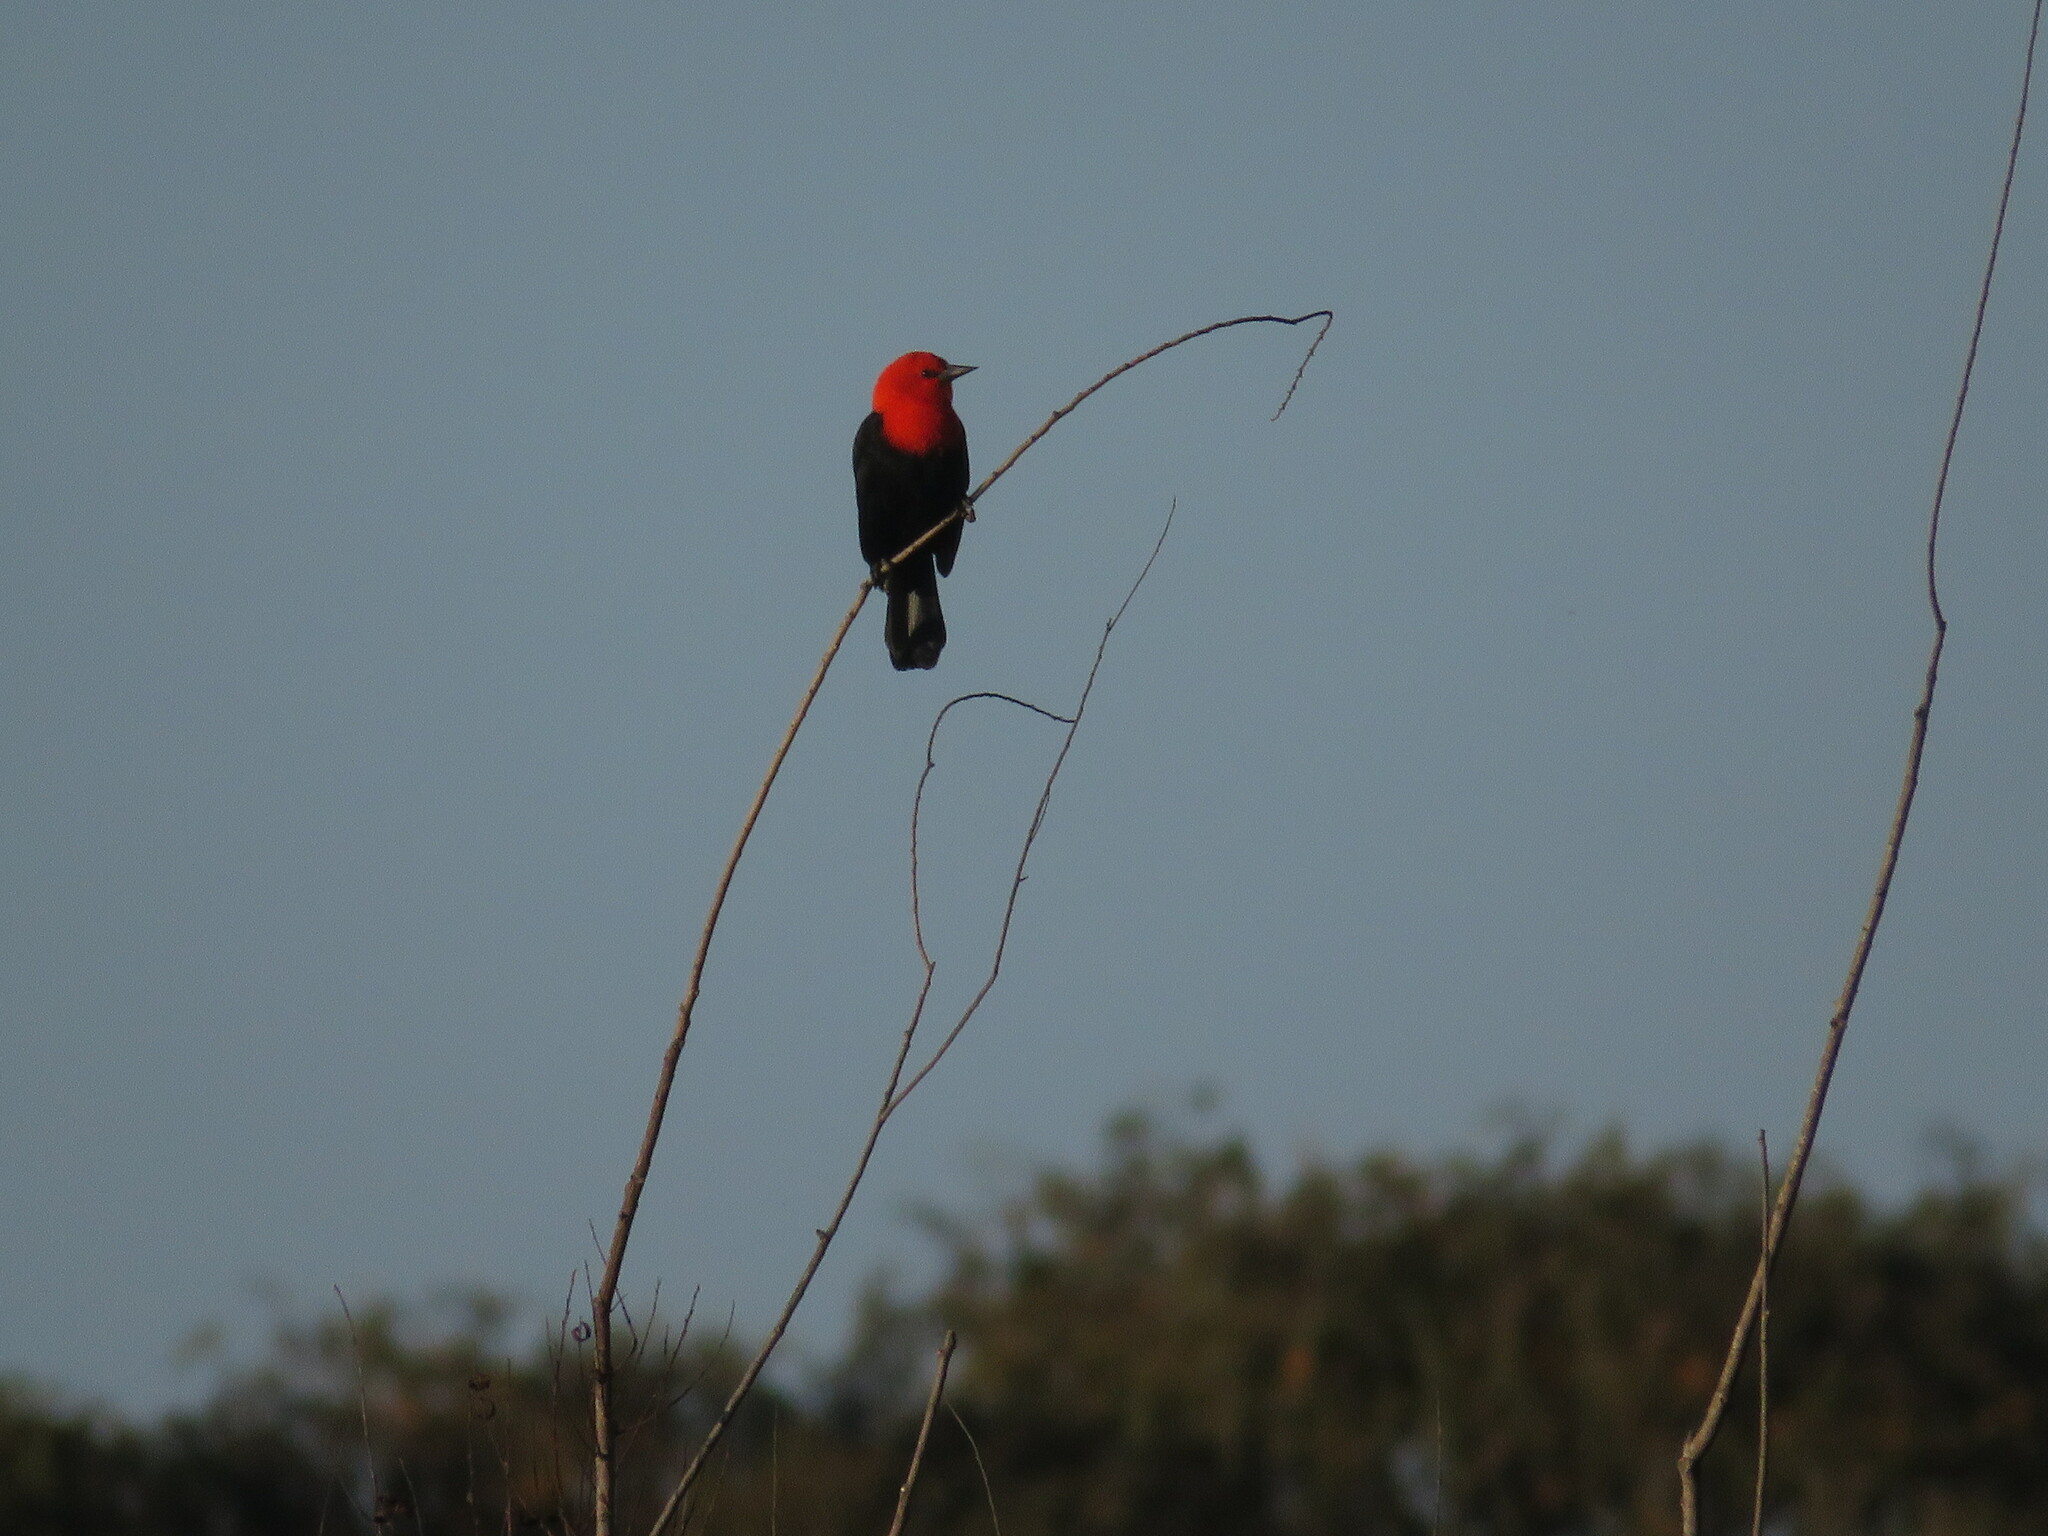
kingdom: Animalia
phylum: Chordata
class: Aves
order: Passeriformes
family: Icteridae
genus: Amblyramphus
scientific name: Amblyramphus holosericeus
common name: Scarlet-headed blackbird
